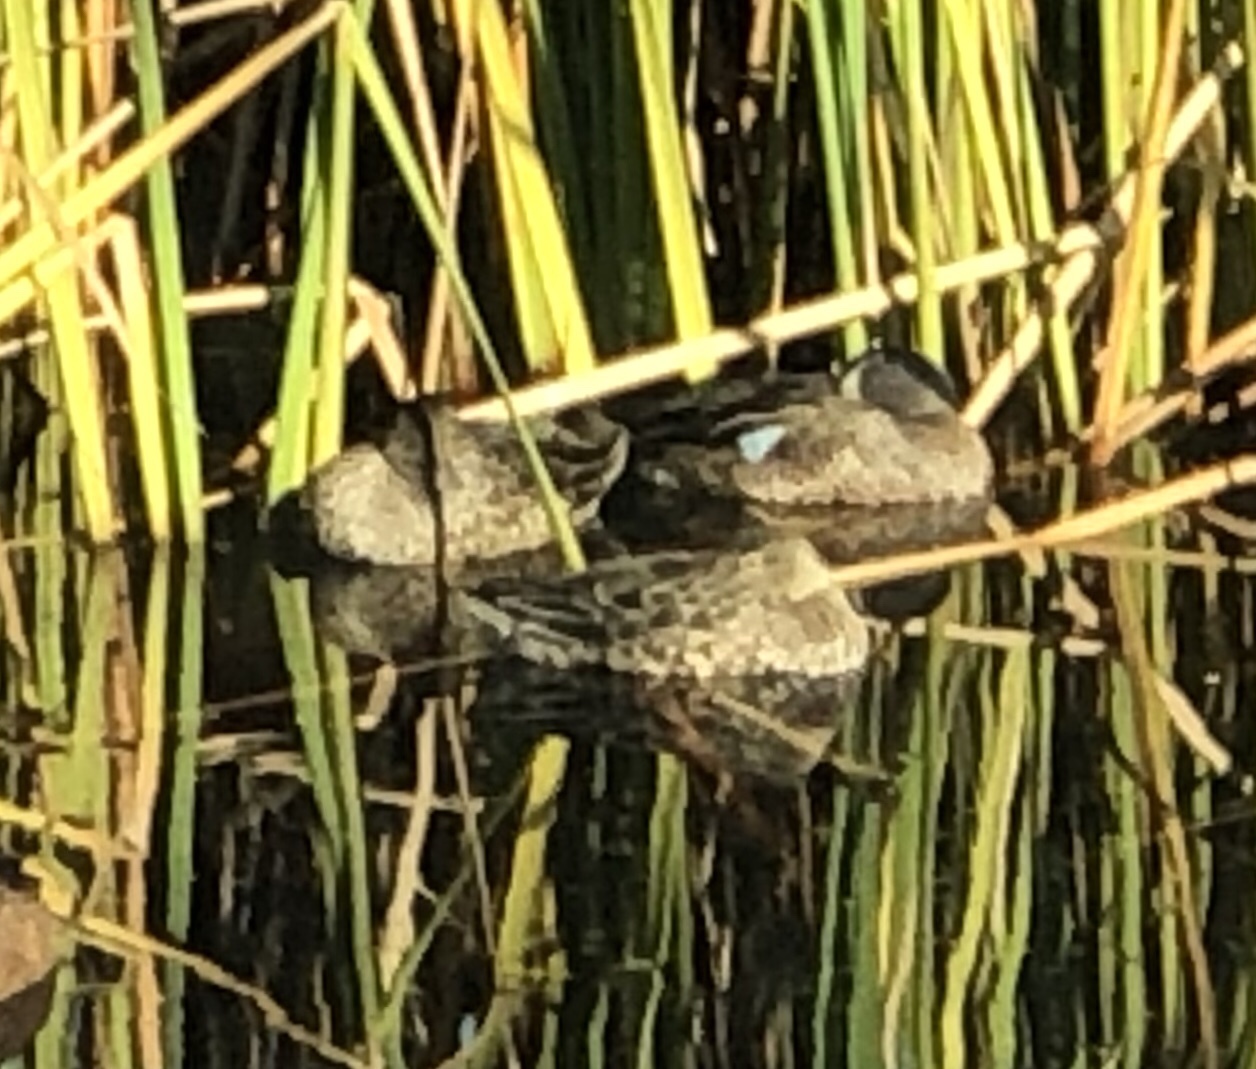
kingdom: Animalia
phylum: Chordata
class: Aves
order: Anseriformes
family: Anatidae
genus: Spatula
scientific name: Spatula discors
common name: Blue-winged teal
